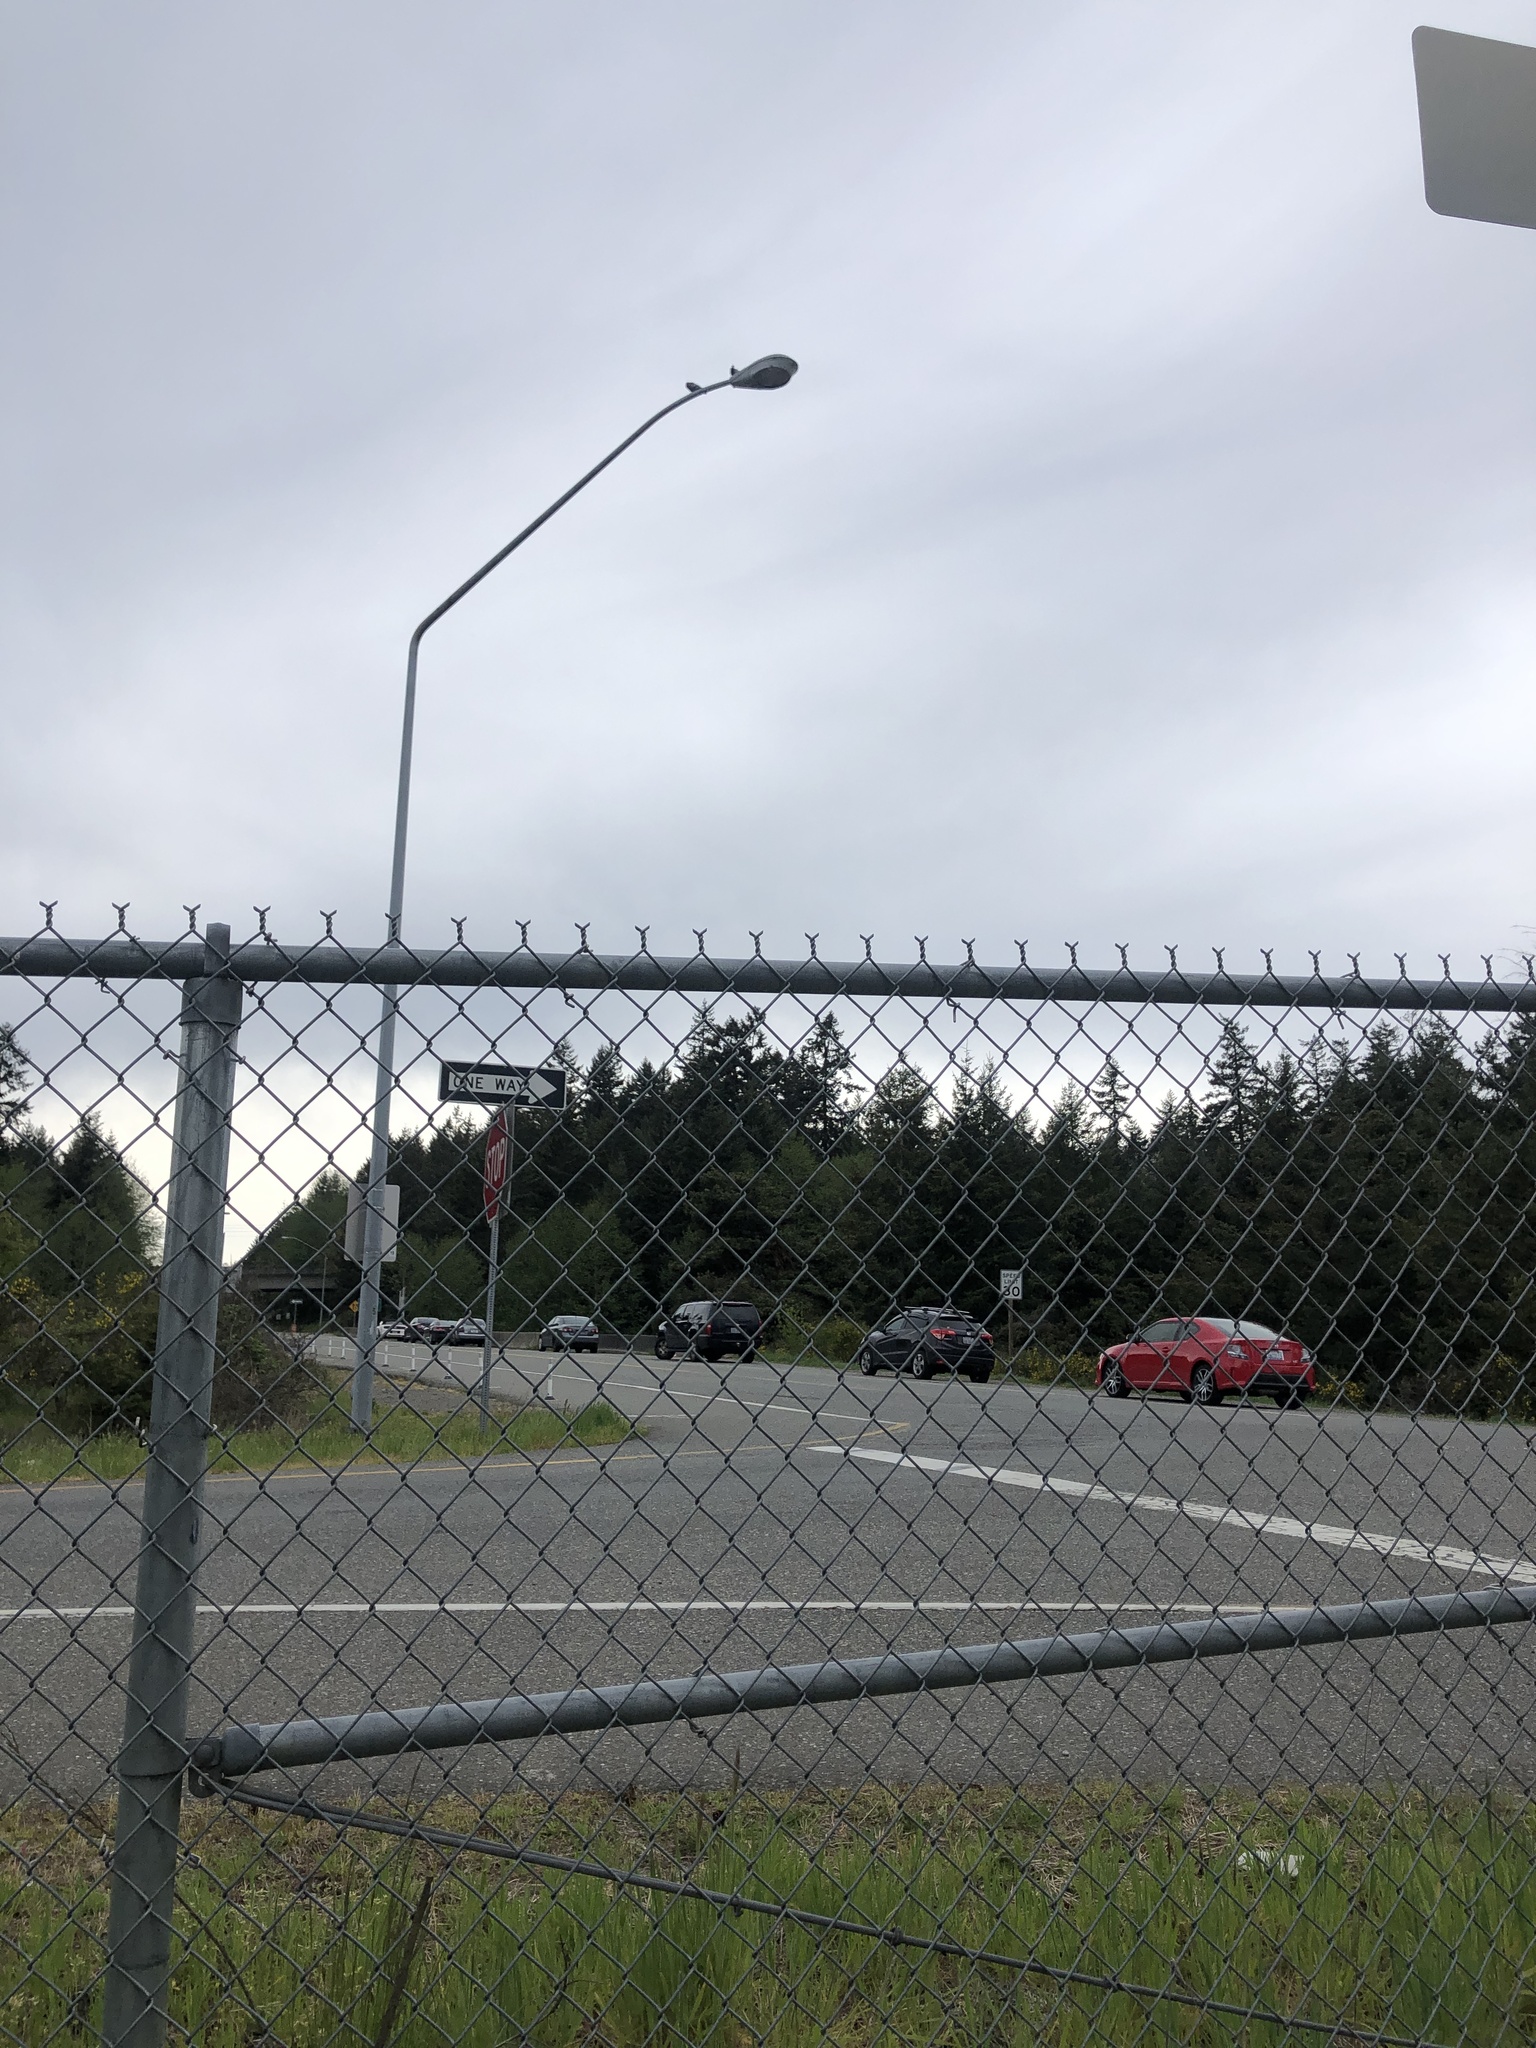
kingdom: Animalia
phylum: Chordata
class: Aves
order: Columbiformes
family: Columbidae
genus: Columba
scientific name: Columba livia
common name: Rock pigeon
